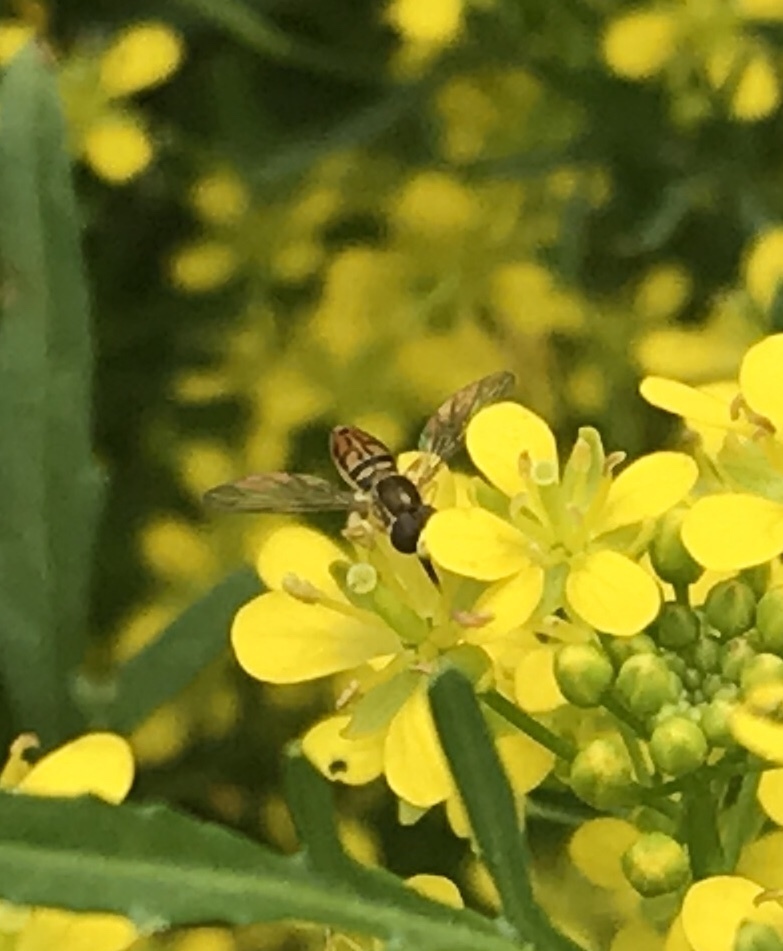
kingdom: Animalia
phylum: Arthropoda
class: Insecta
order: Diptera
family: Syrphidae
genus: Toxomerus
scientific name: Toxomerus marginatus
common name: Syrphid fly
